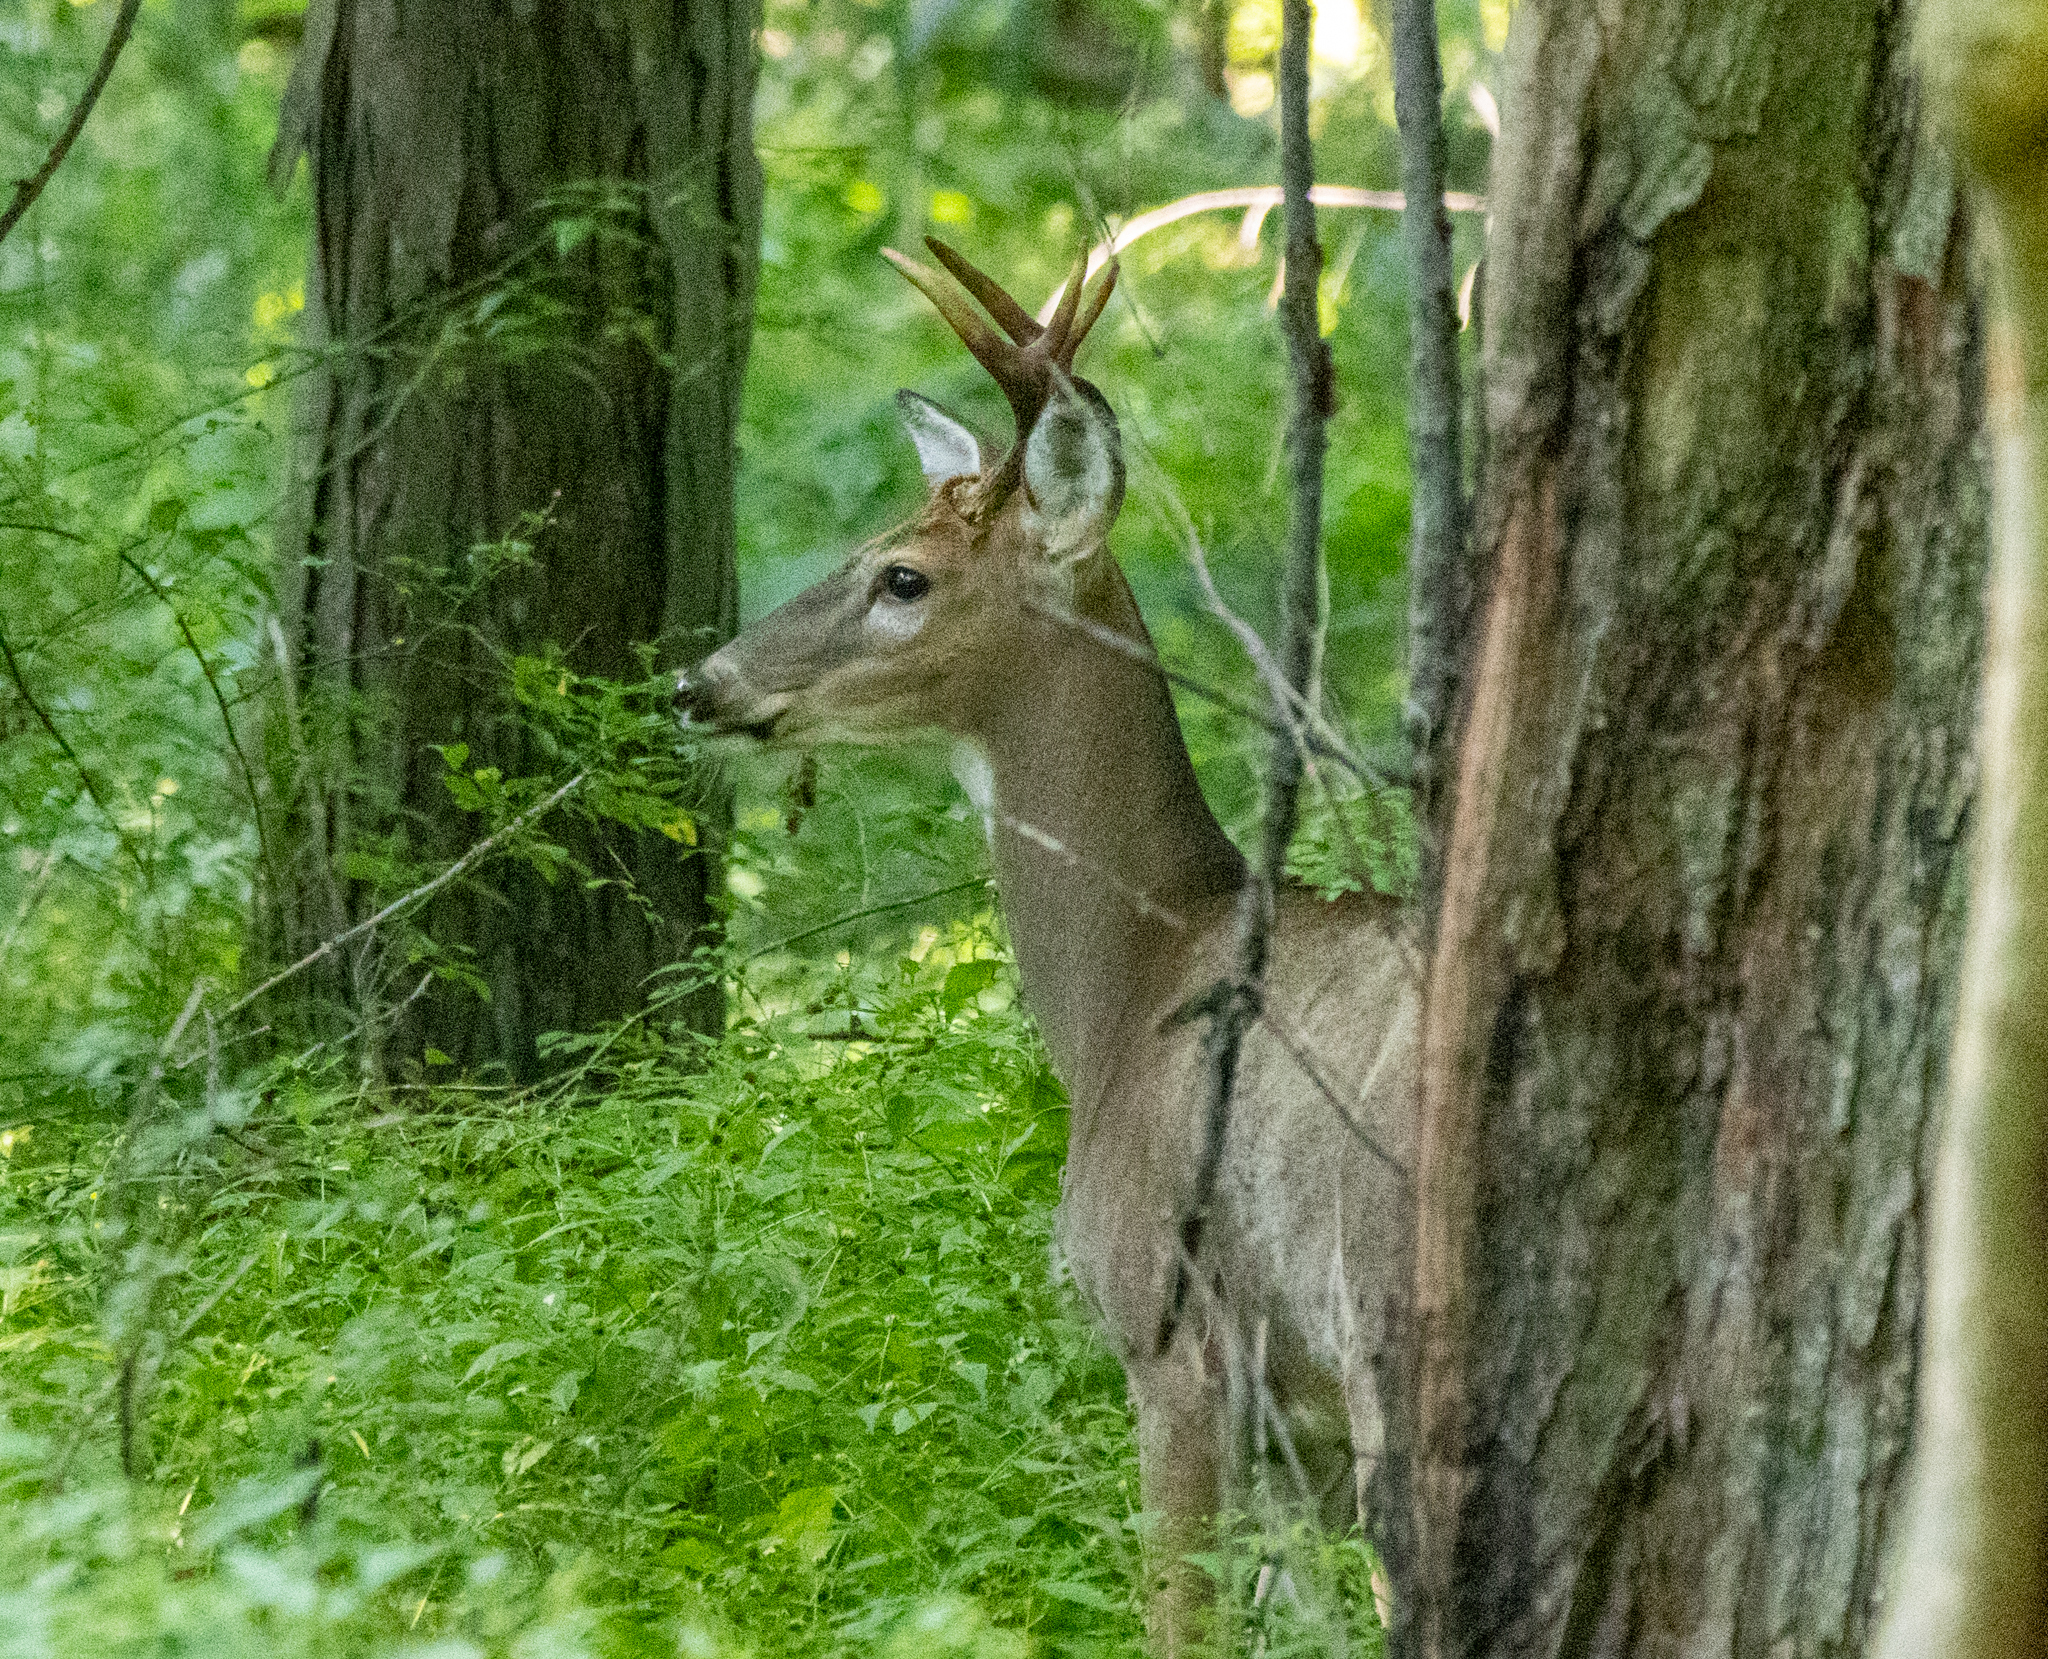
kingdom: Animalia
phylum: Chordata
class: Mammalia
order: Artiodactyla
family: Cervidae
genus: Odocoileus
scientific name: Odocoileus virginianus
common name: White-tailed deer
